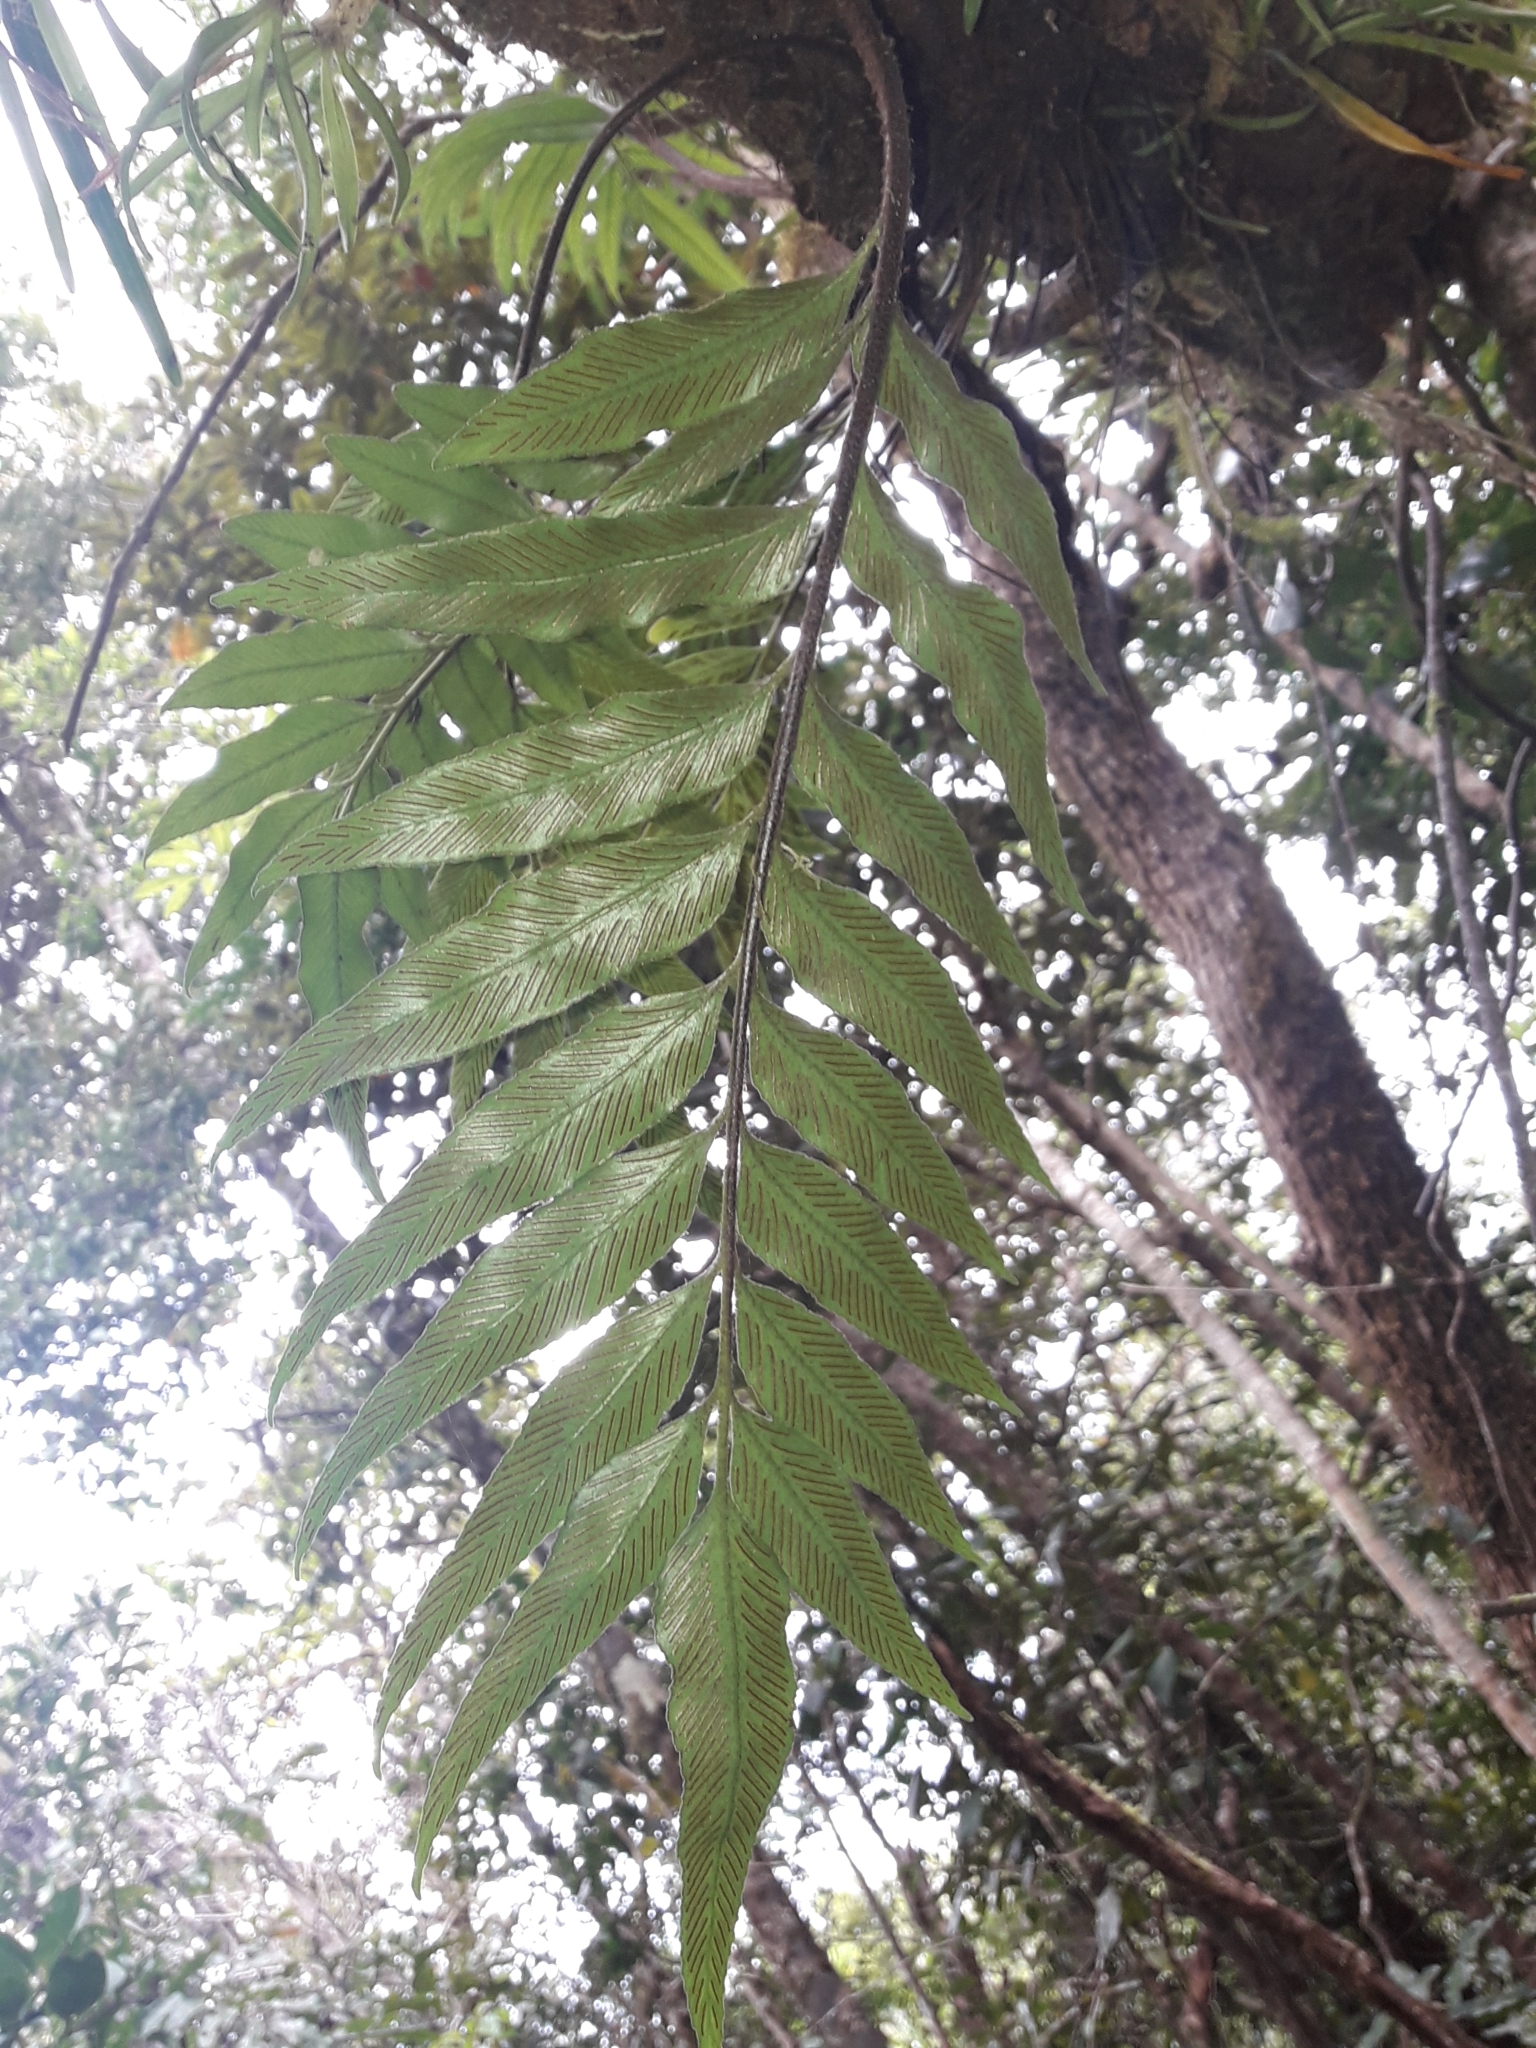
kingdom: Plantae
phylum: Tracheophyta
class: Polypodiopsida
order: Polypodiales
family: Aspleniaceae
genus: Asplenium
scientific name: Asplenium oligolepidum
